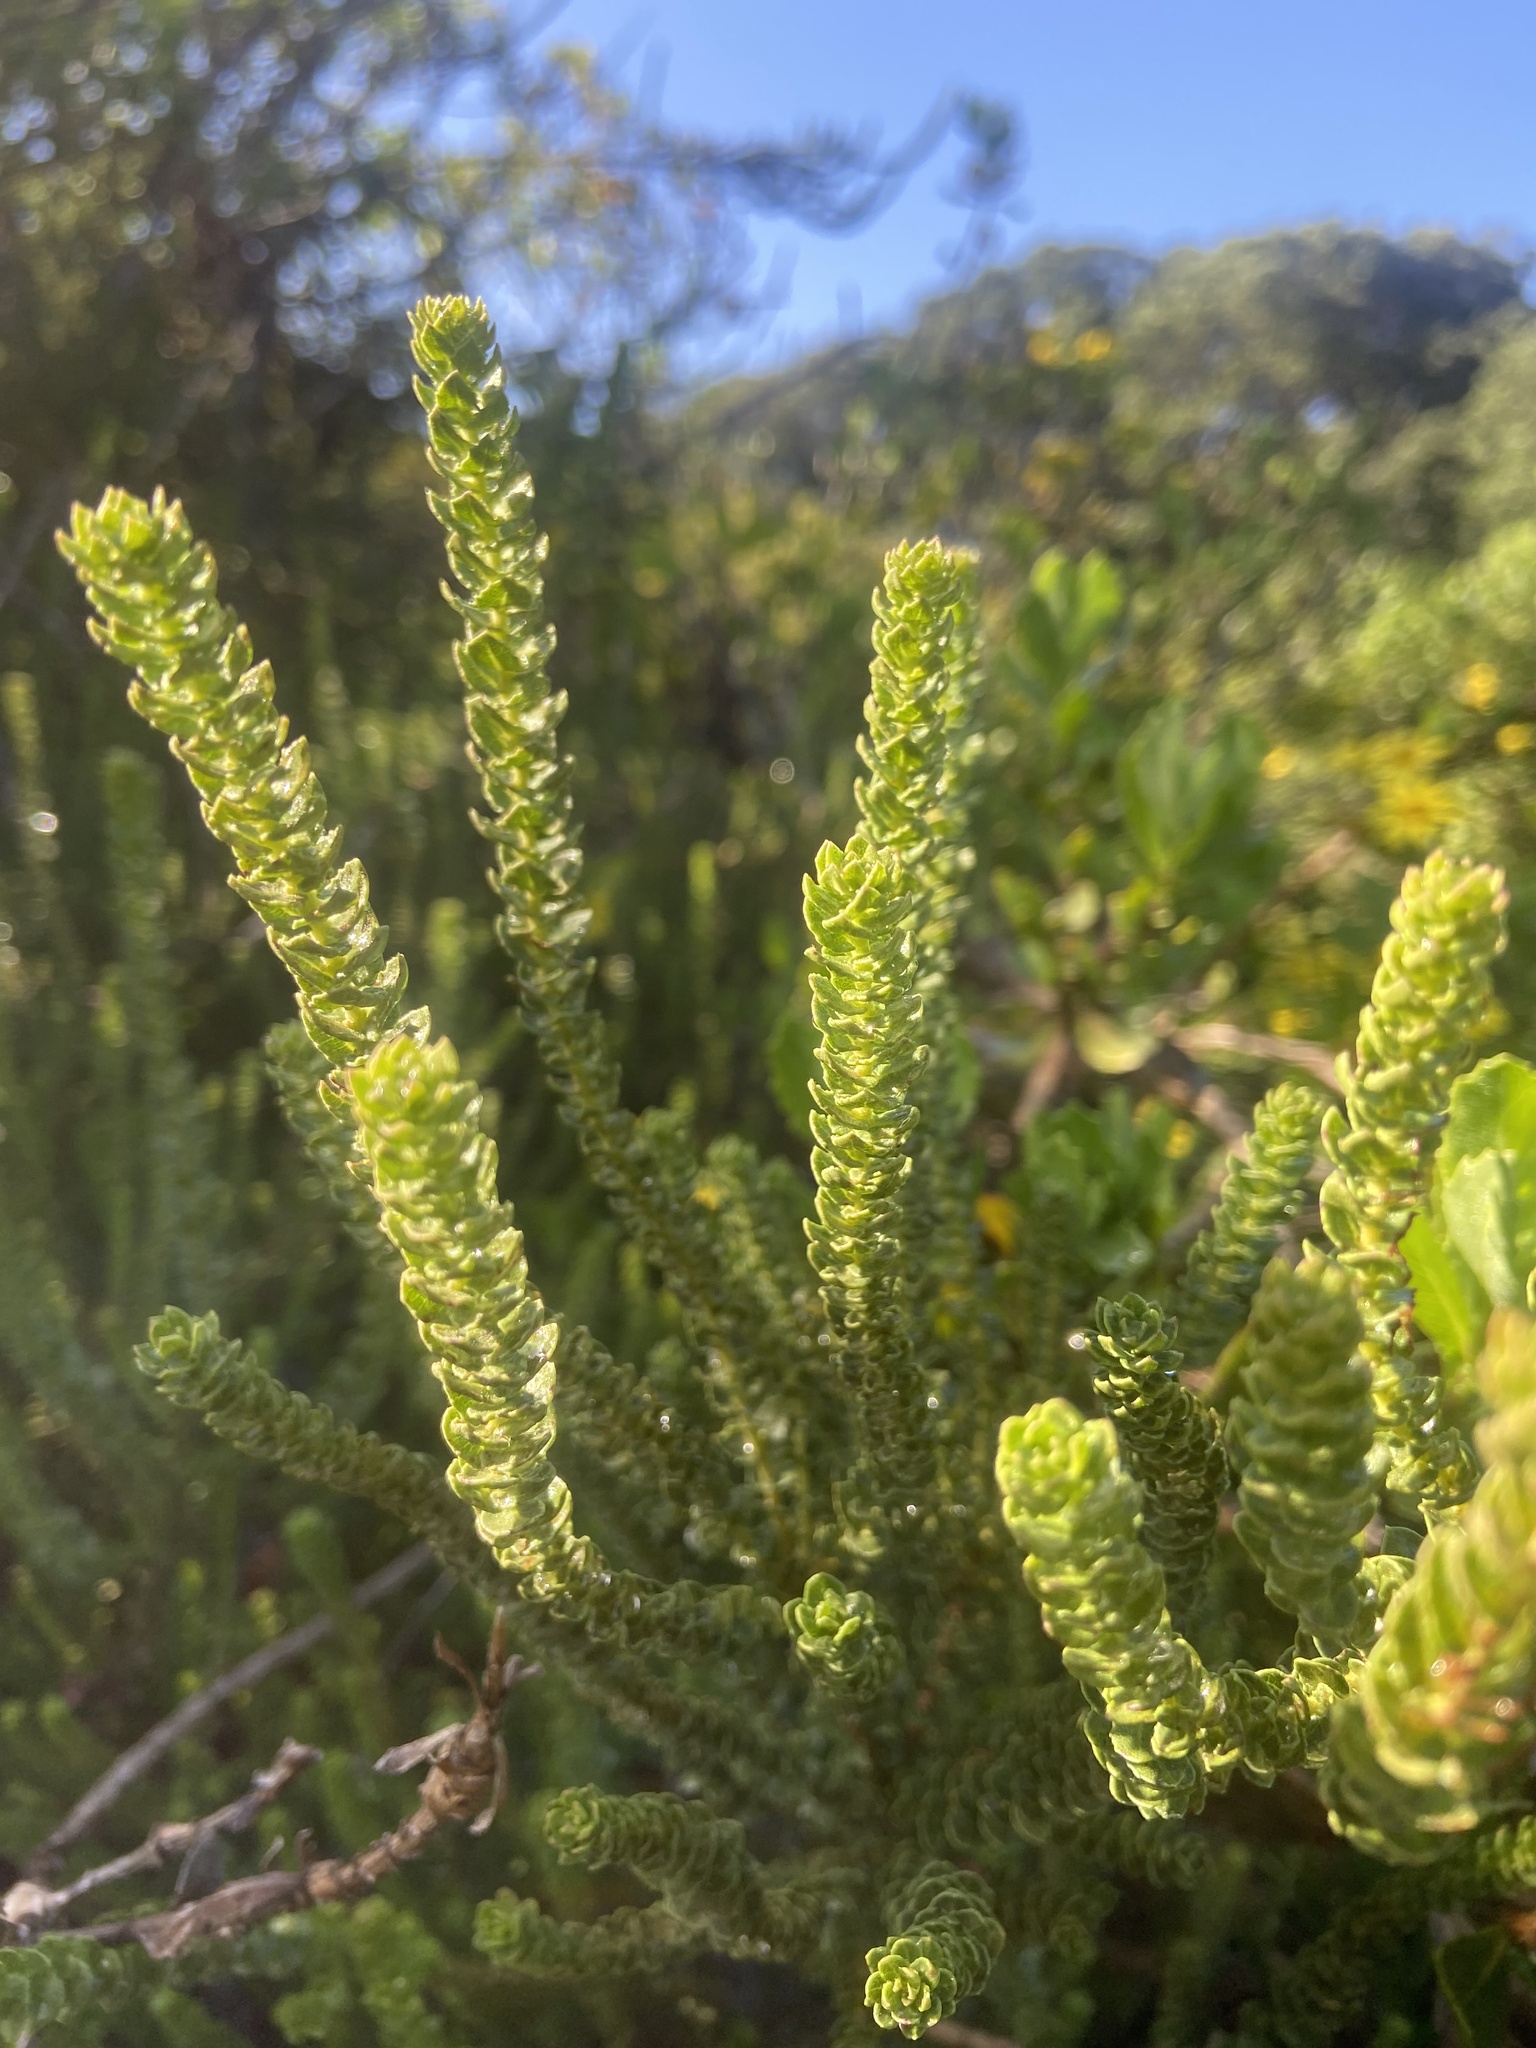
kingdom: Plantae
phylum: Tracheophyta
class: Magnoliopsida
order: Fagales
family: Myricaceae
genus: Morella
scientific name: Morella cordifolia
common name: Waxberry
